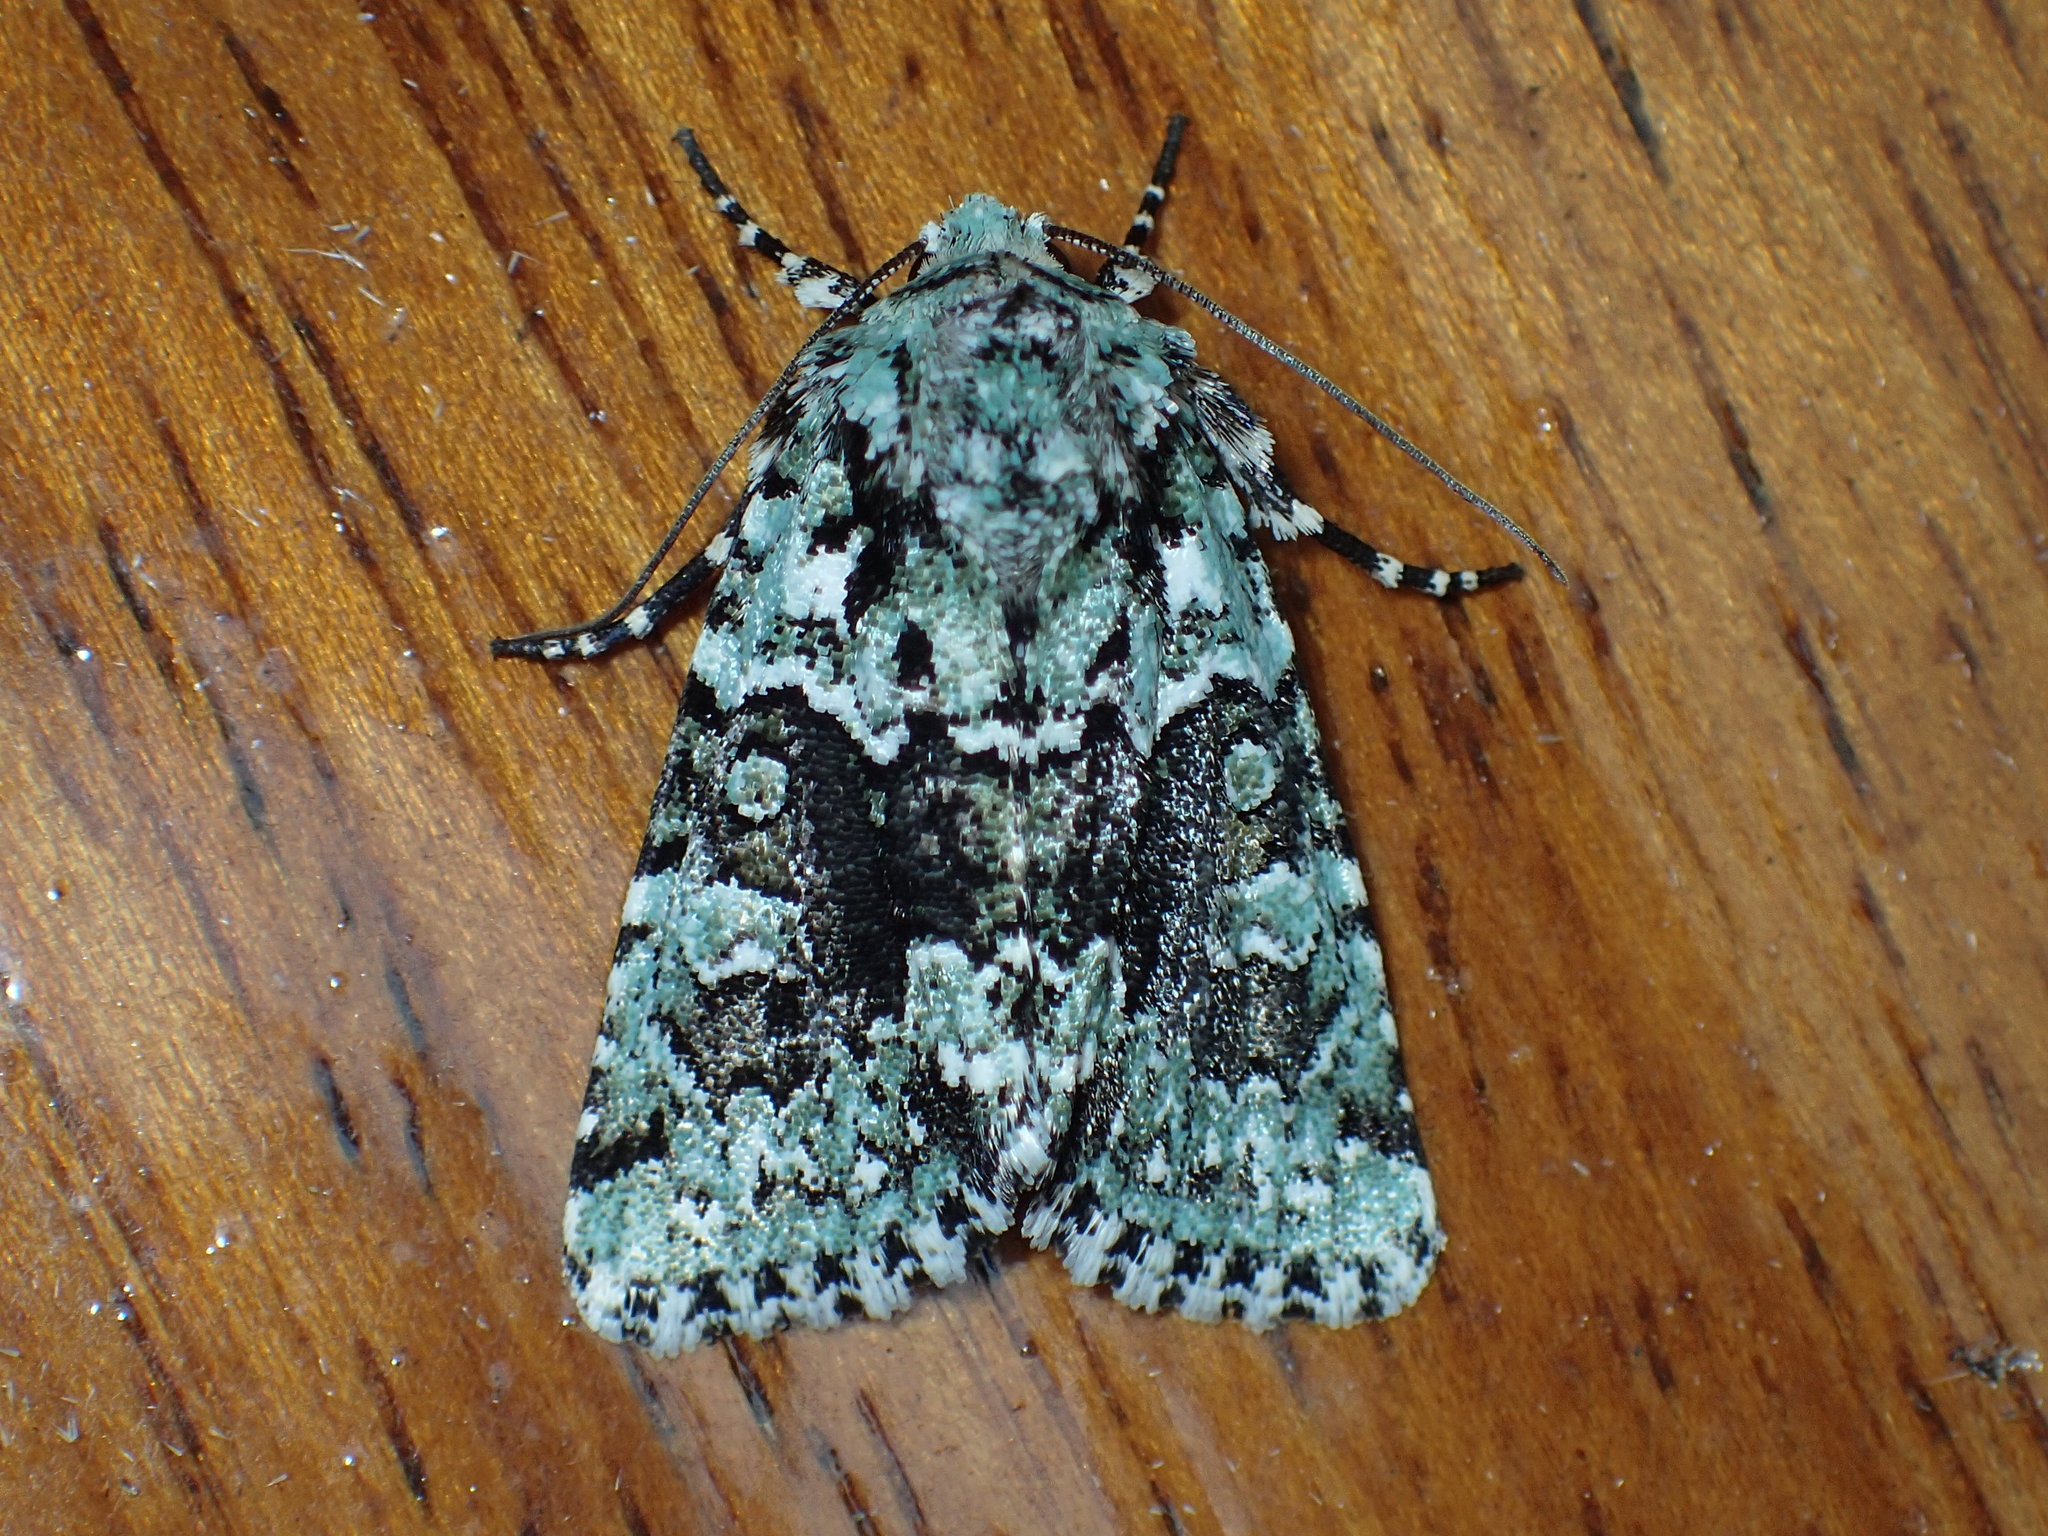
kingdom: Animalia
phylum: Arthropoda
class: Insecta
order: Lepidoptera
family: Noctuidae
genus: Lacinipolia
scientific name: Lacinipolia explicata
